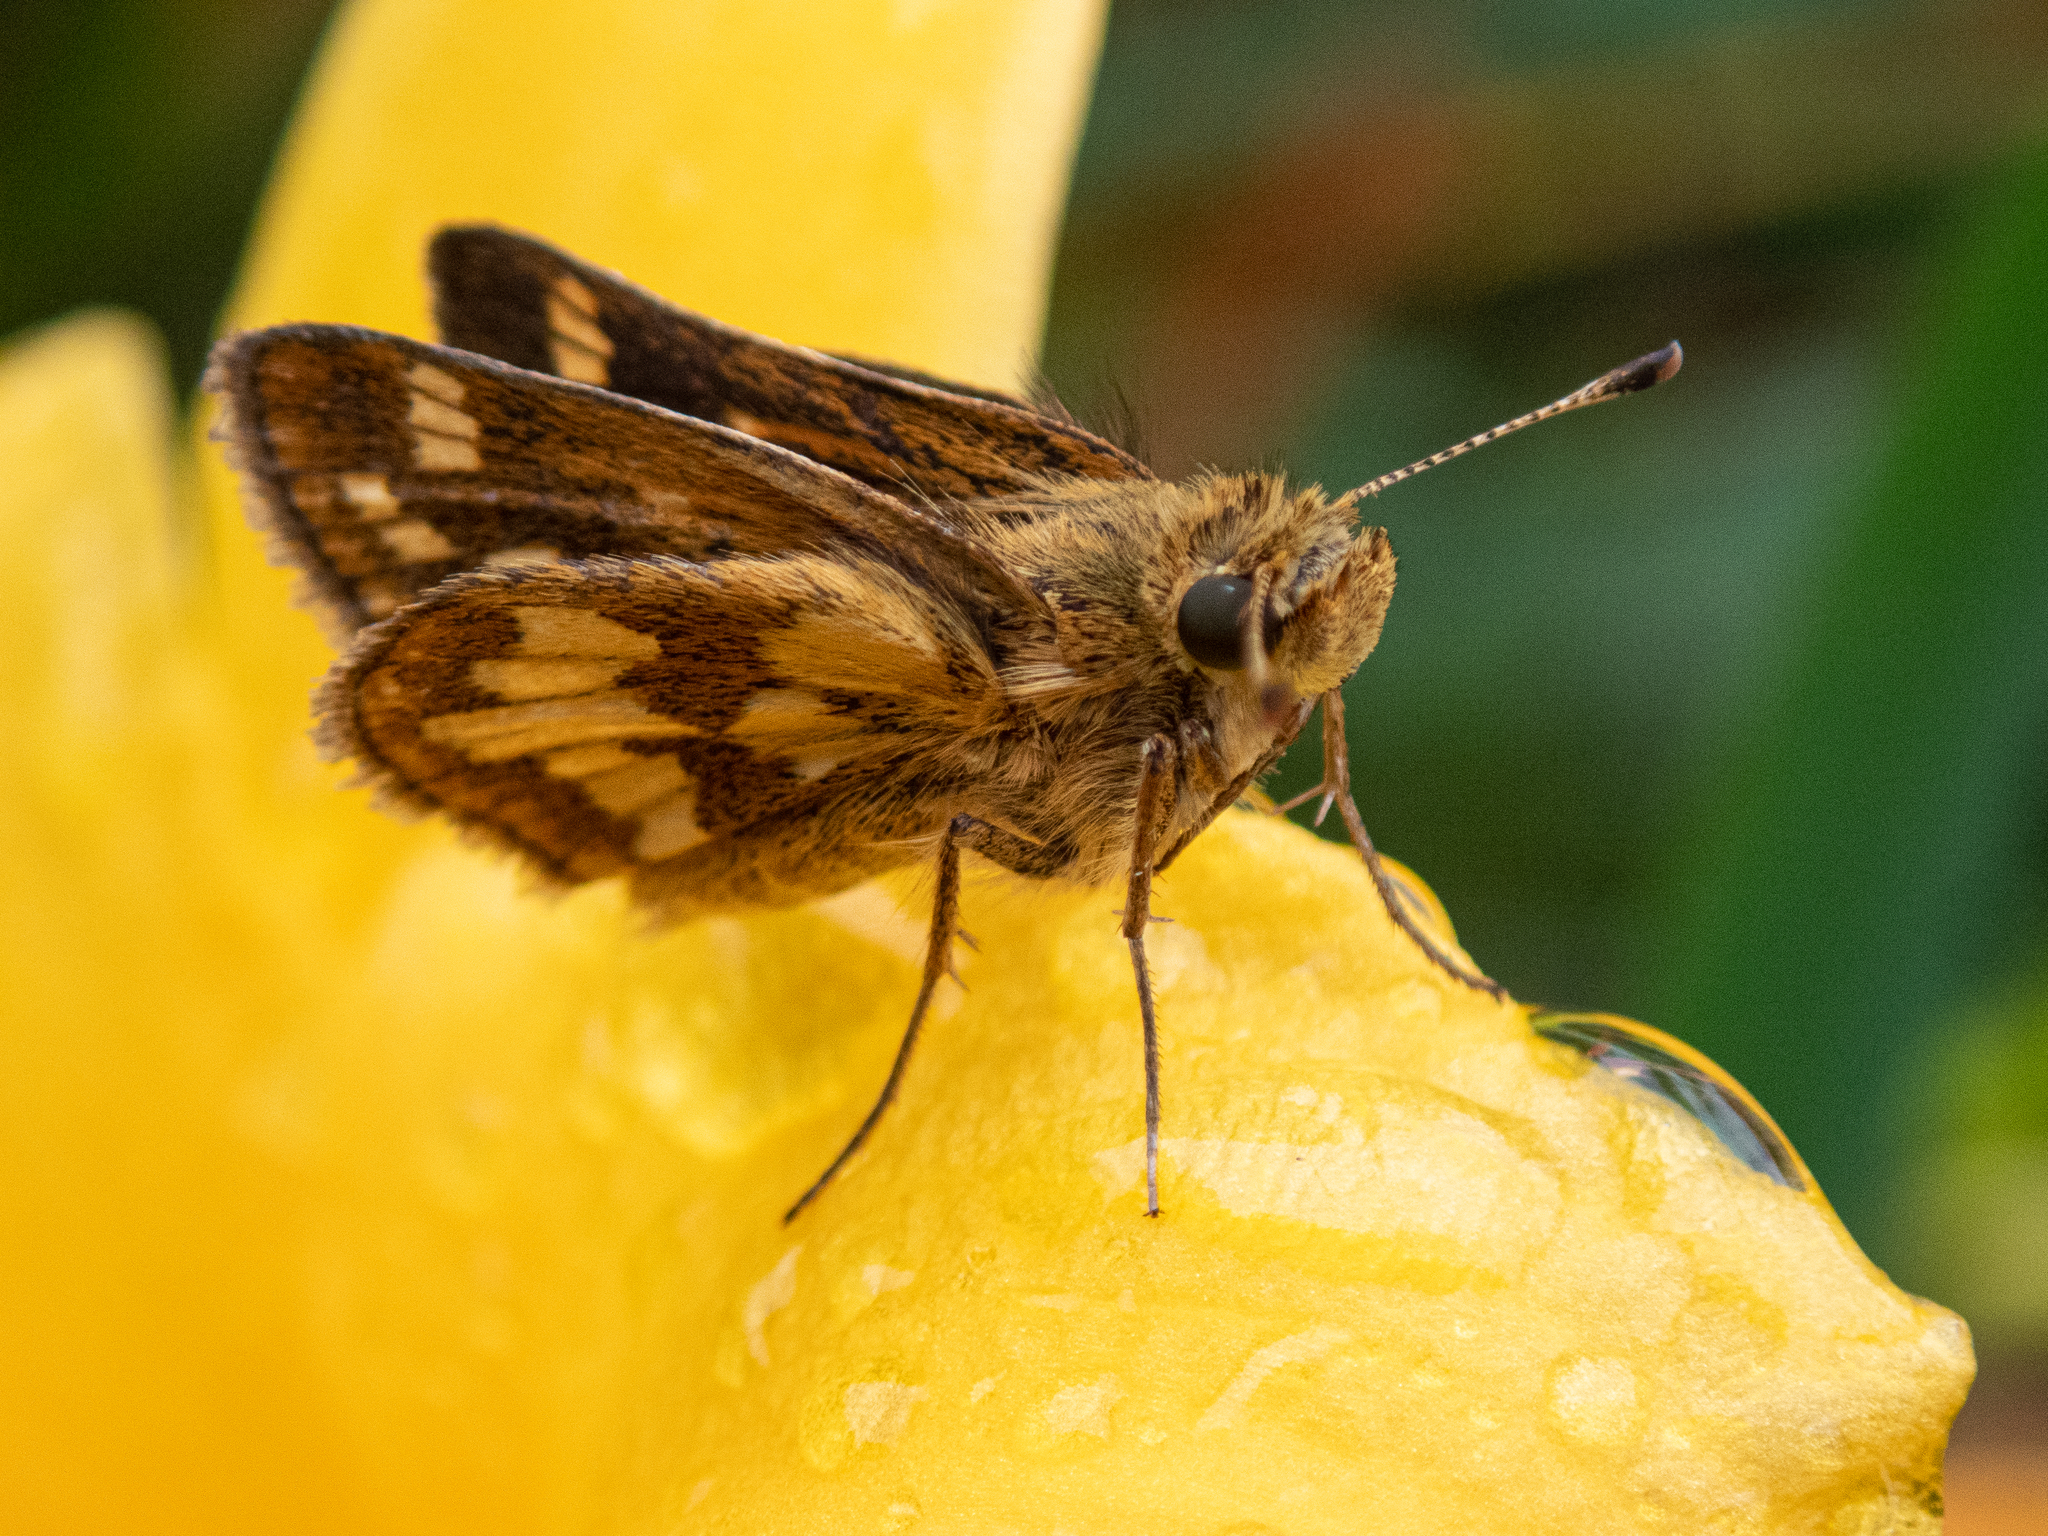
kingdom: Animalia
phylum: Arthropoda
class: Insecta
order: Lepidoptera
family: Hesperiidae
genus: Polites
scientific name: Polites coras
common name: Peck's skipper
